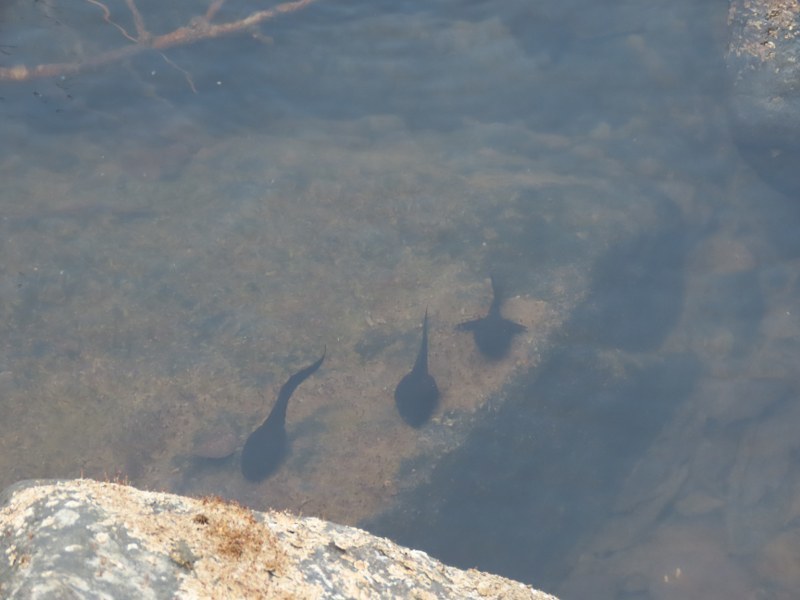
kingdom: Animalia
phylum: Chordata
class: Amphibia
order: Anura
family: Ranidae
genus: Clinotarsus
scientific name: Clinotarsus curtipes
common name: Bicoloured frog
